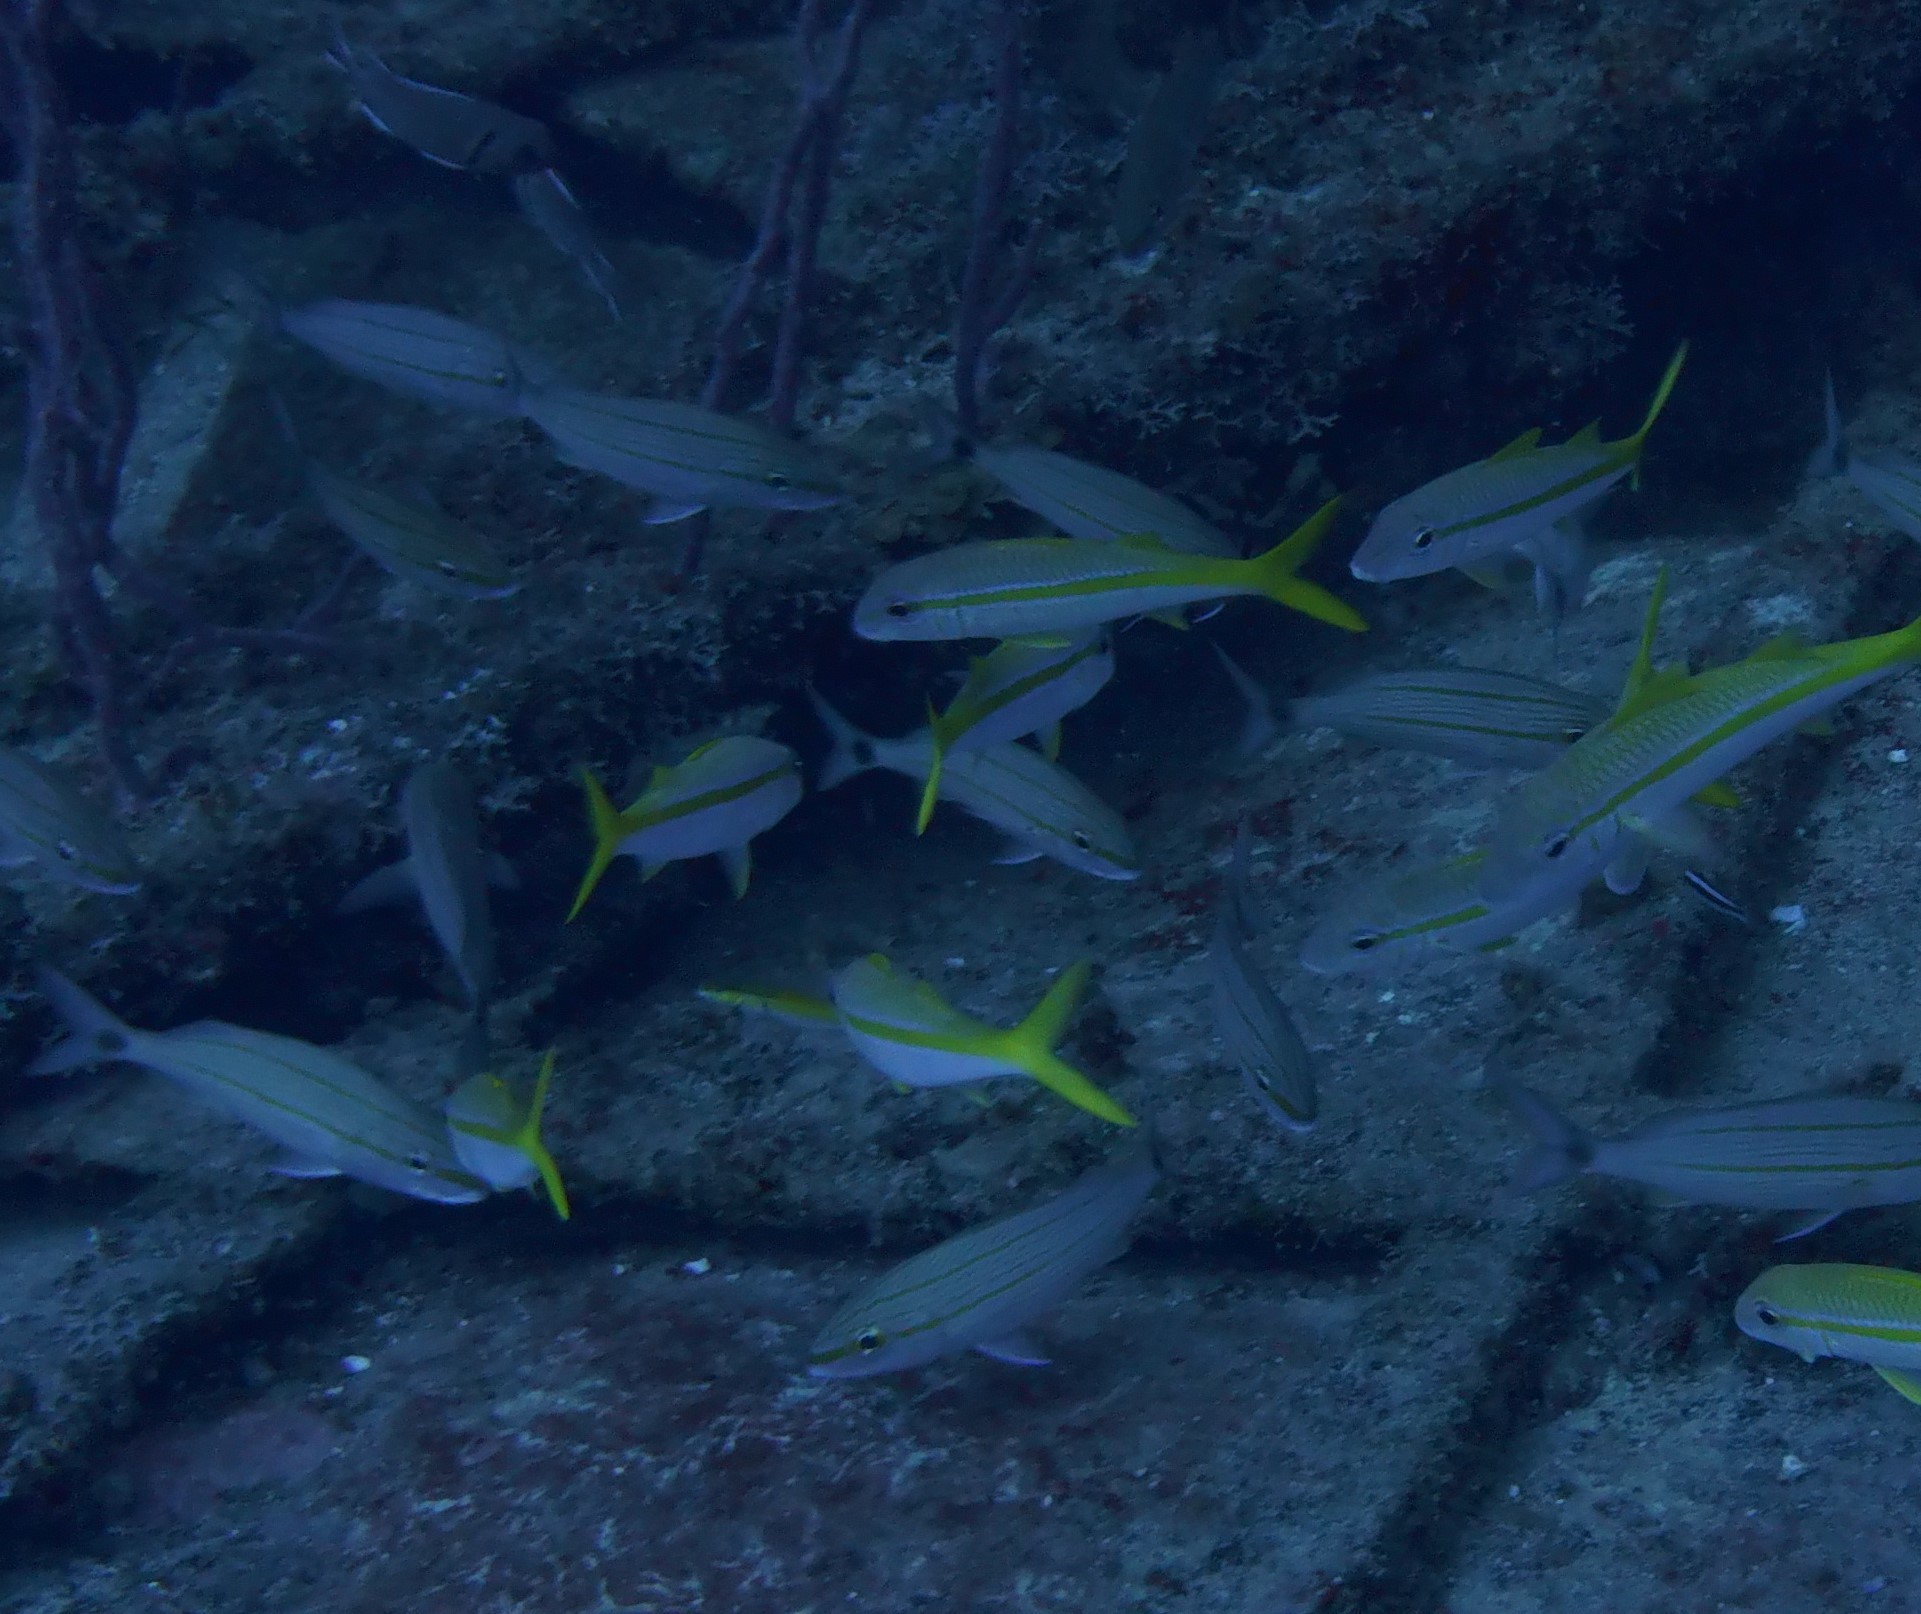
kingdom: Animalia
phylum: Chordata
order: Perciformes
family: Mullidae
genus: Mulloidichthys
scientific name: Mulloidichthys martinicus
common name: Yellow goatfish
